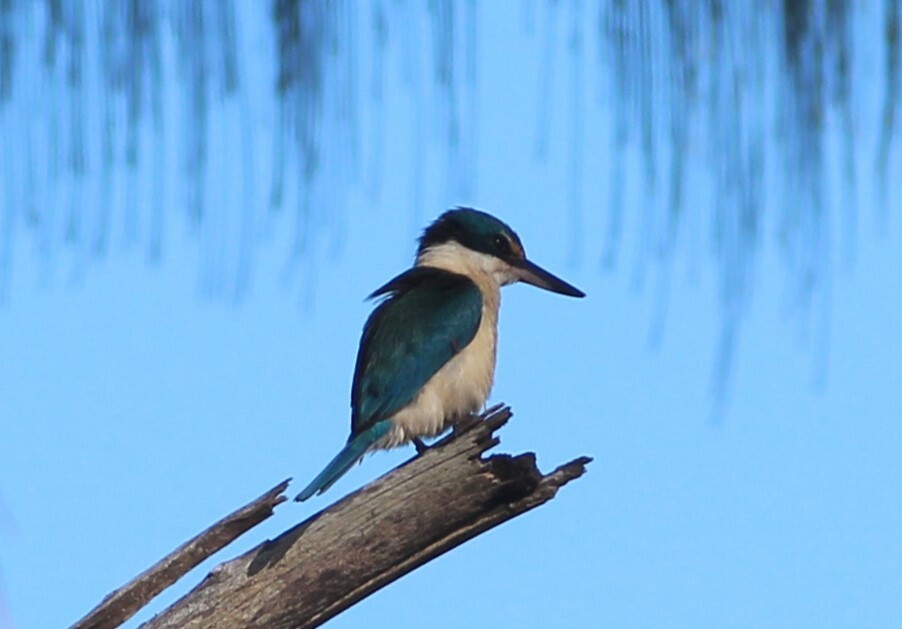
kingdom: Animalia
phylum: Chordata
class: Aves
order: Coraciiformes
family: Alcedinidae
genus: Todiramphus
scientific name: Todiramphus sanctus
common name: Sacred kingfisher
